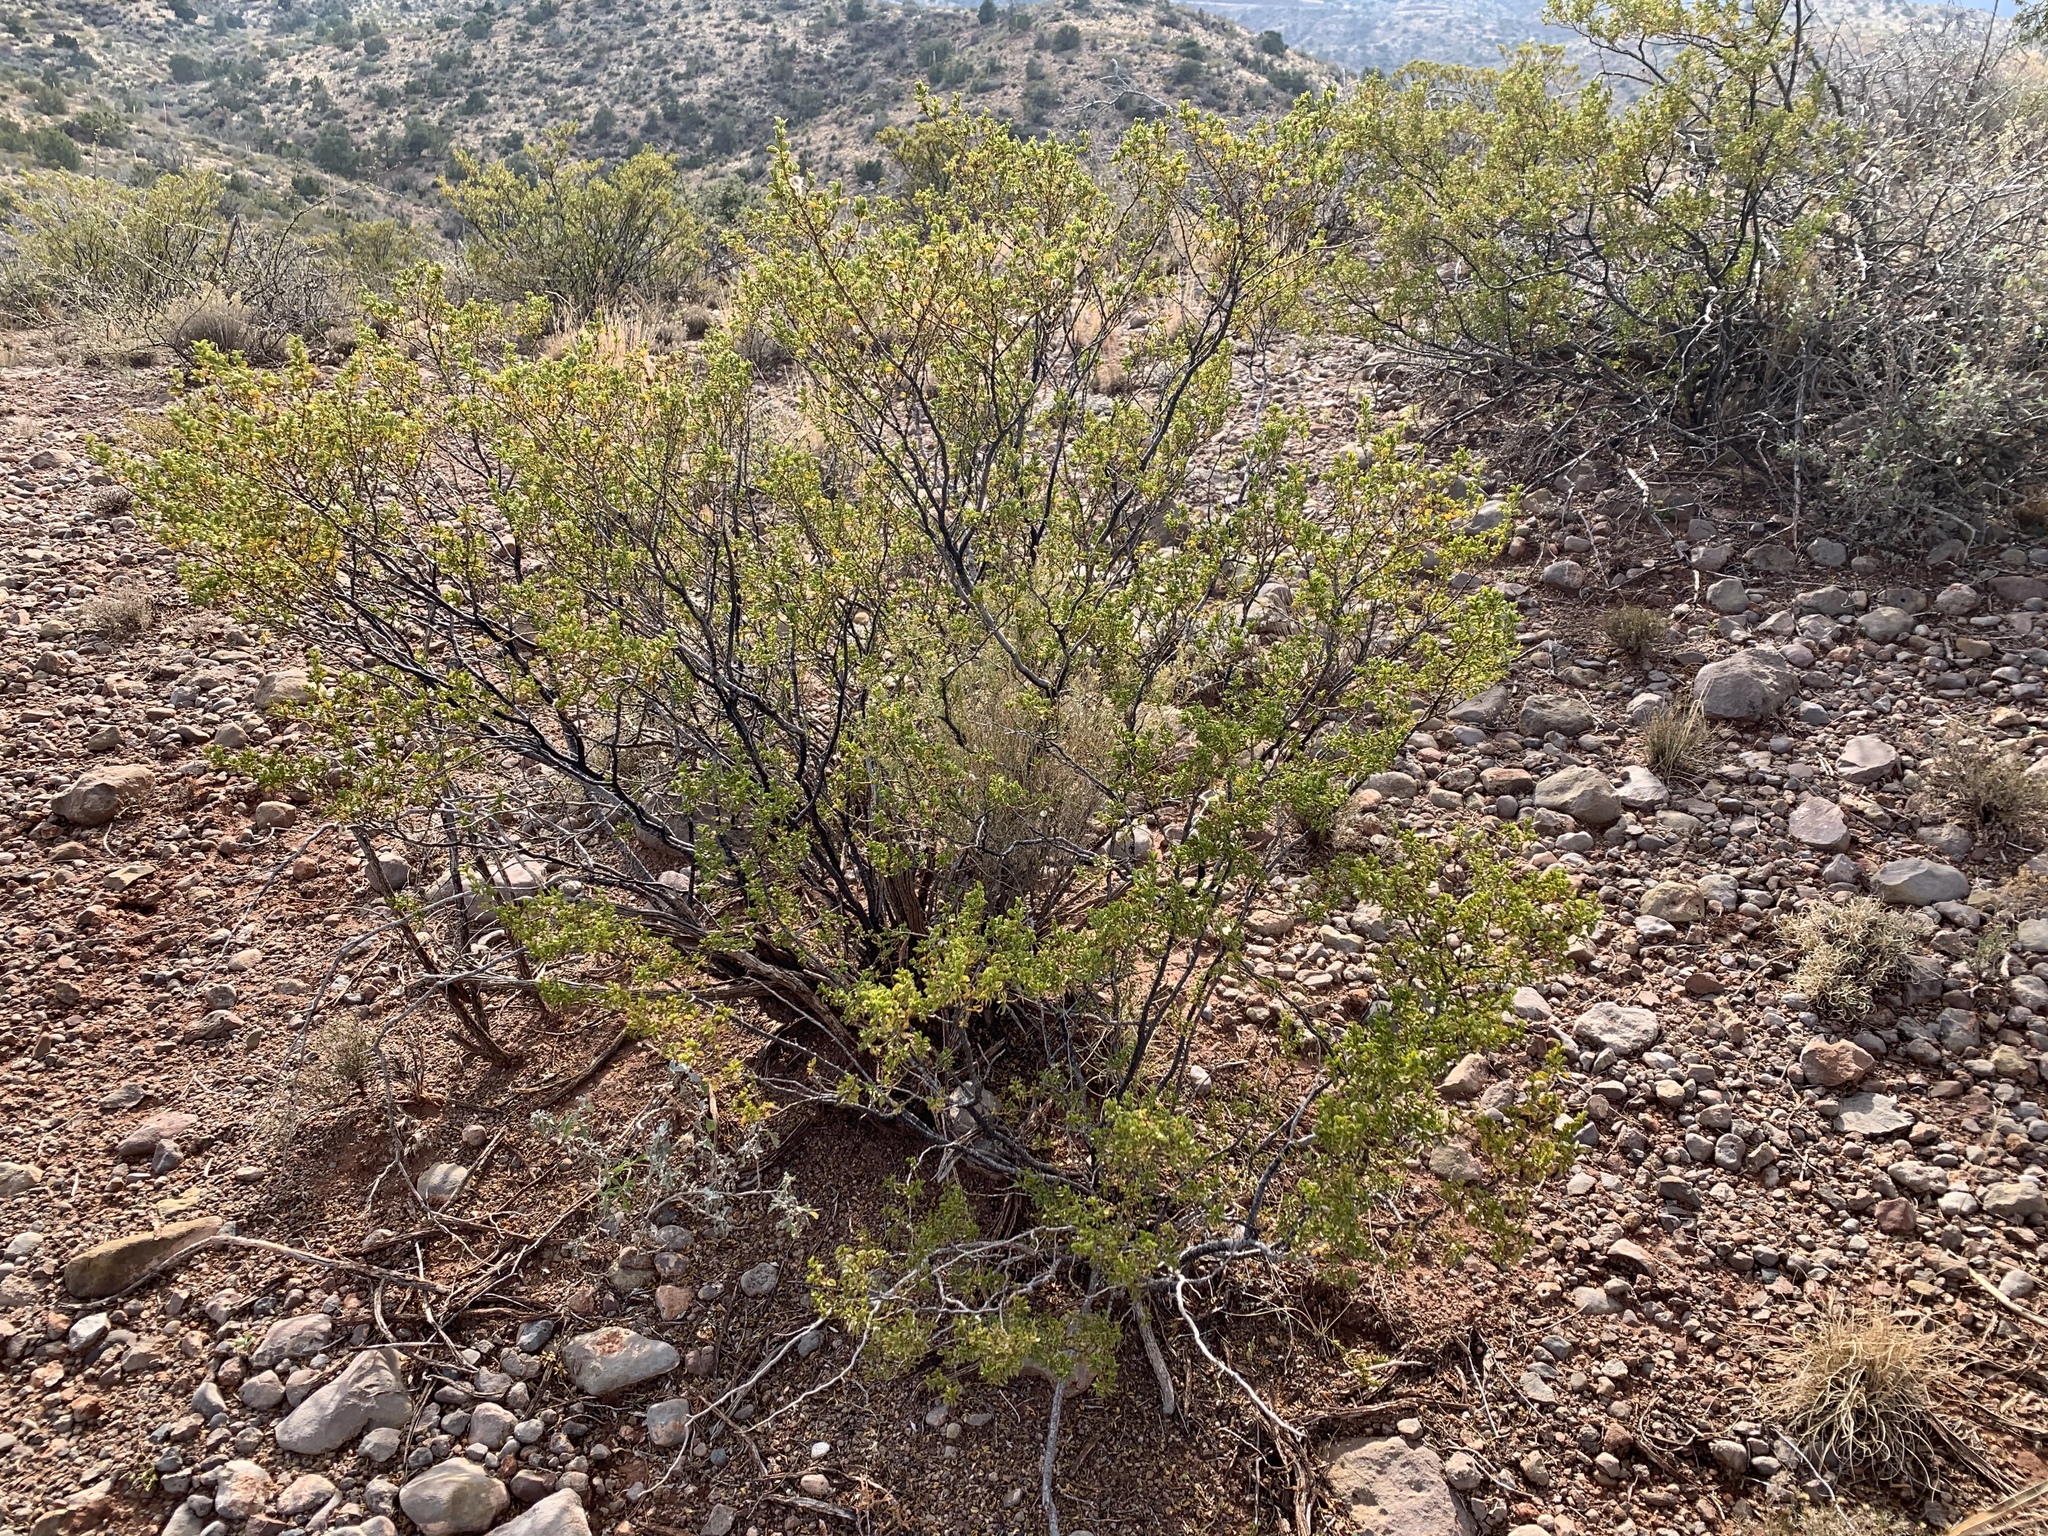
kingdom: Plantae
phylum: Tracheophyta
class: Magnoliopsida
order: Zygophyllales
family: Zygophyllaceae
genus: Larrea
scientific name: Larrea tridentata
